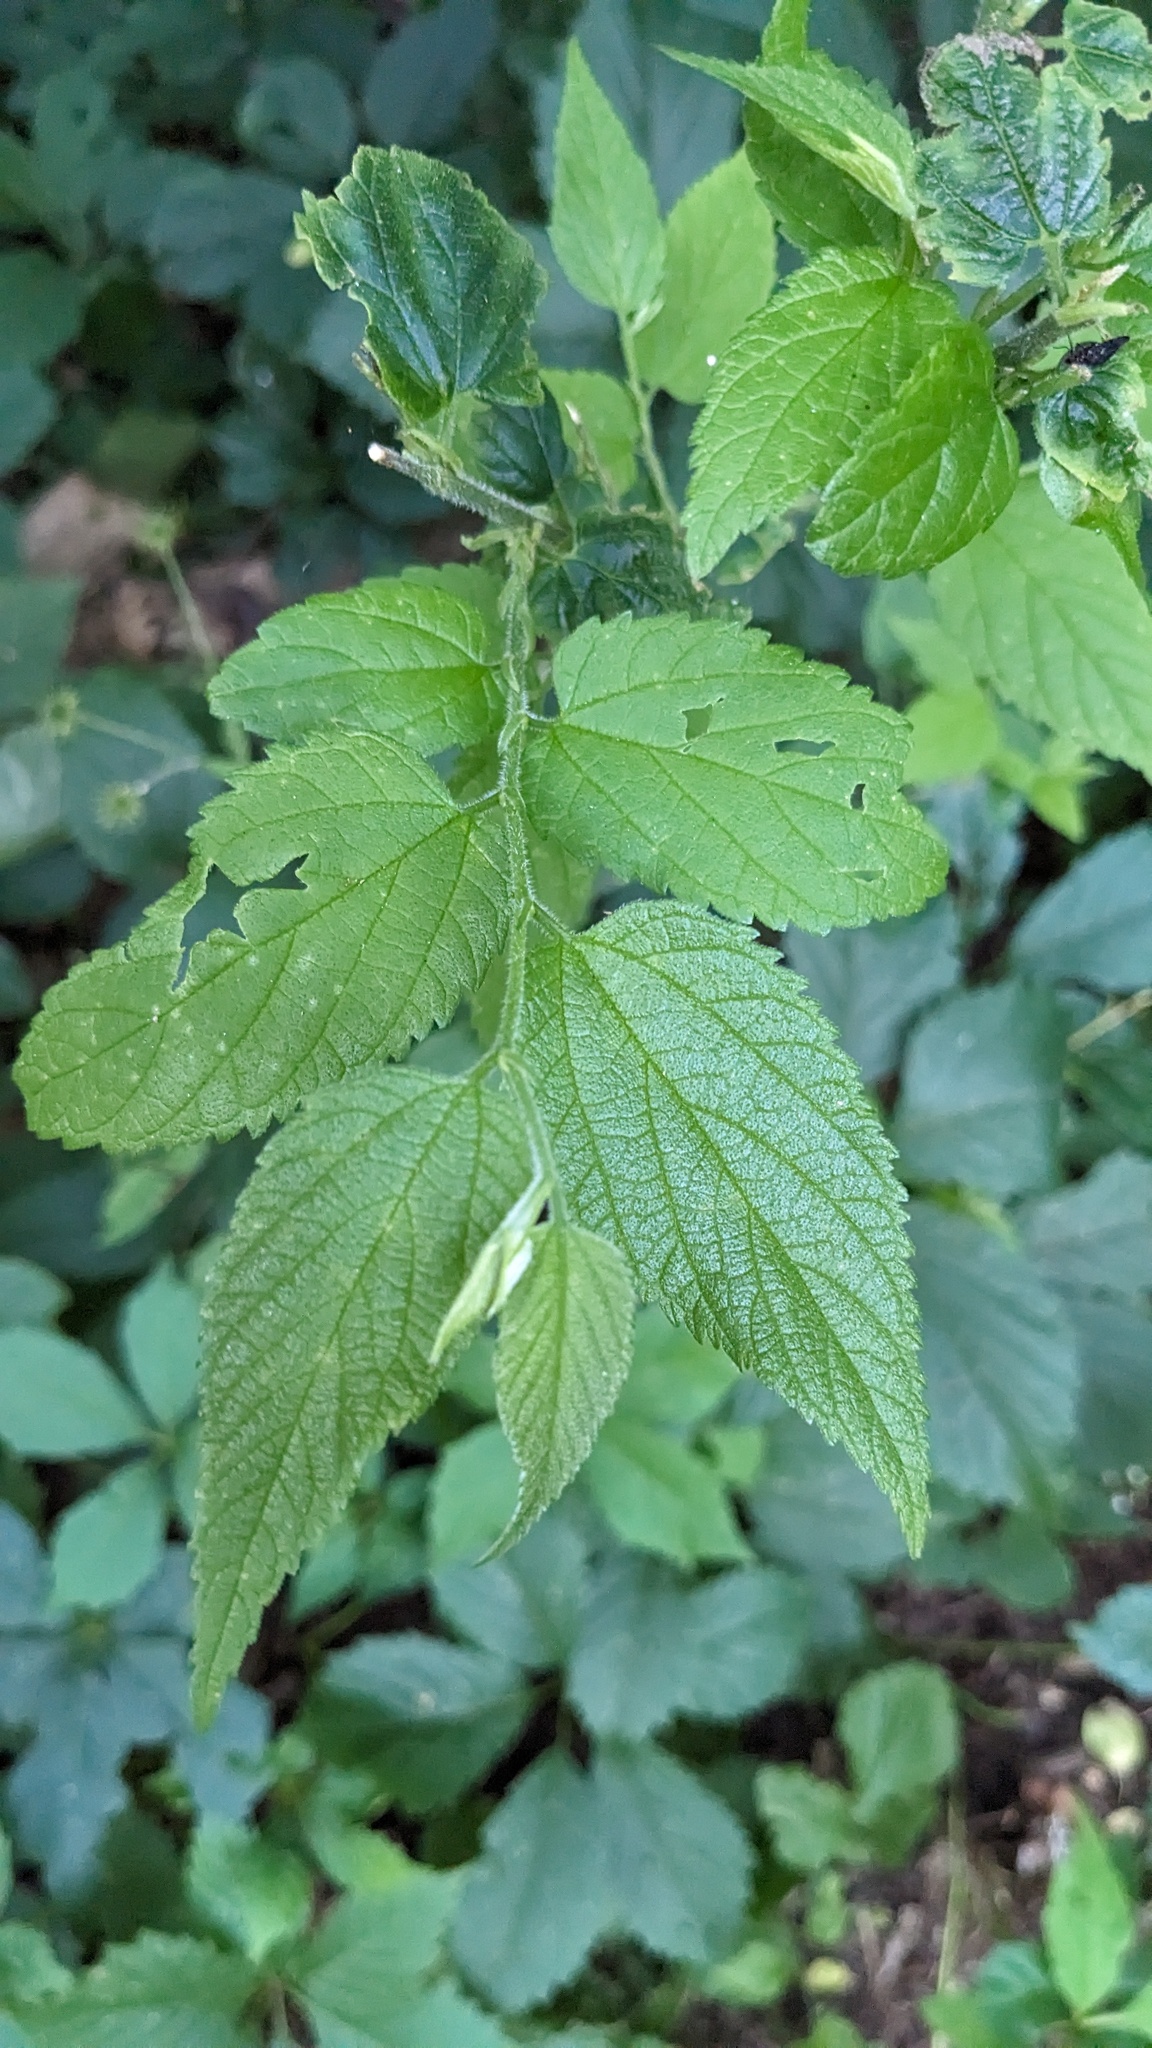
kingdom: Plantae
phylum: Tracheophyta
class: Magnoliopsida
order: Rosales
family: Cannabaceae
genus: Celtis
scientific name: Celtis occidentalis
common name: Common hackberry
